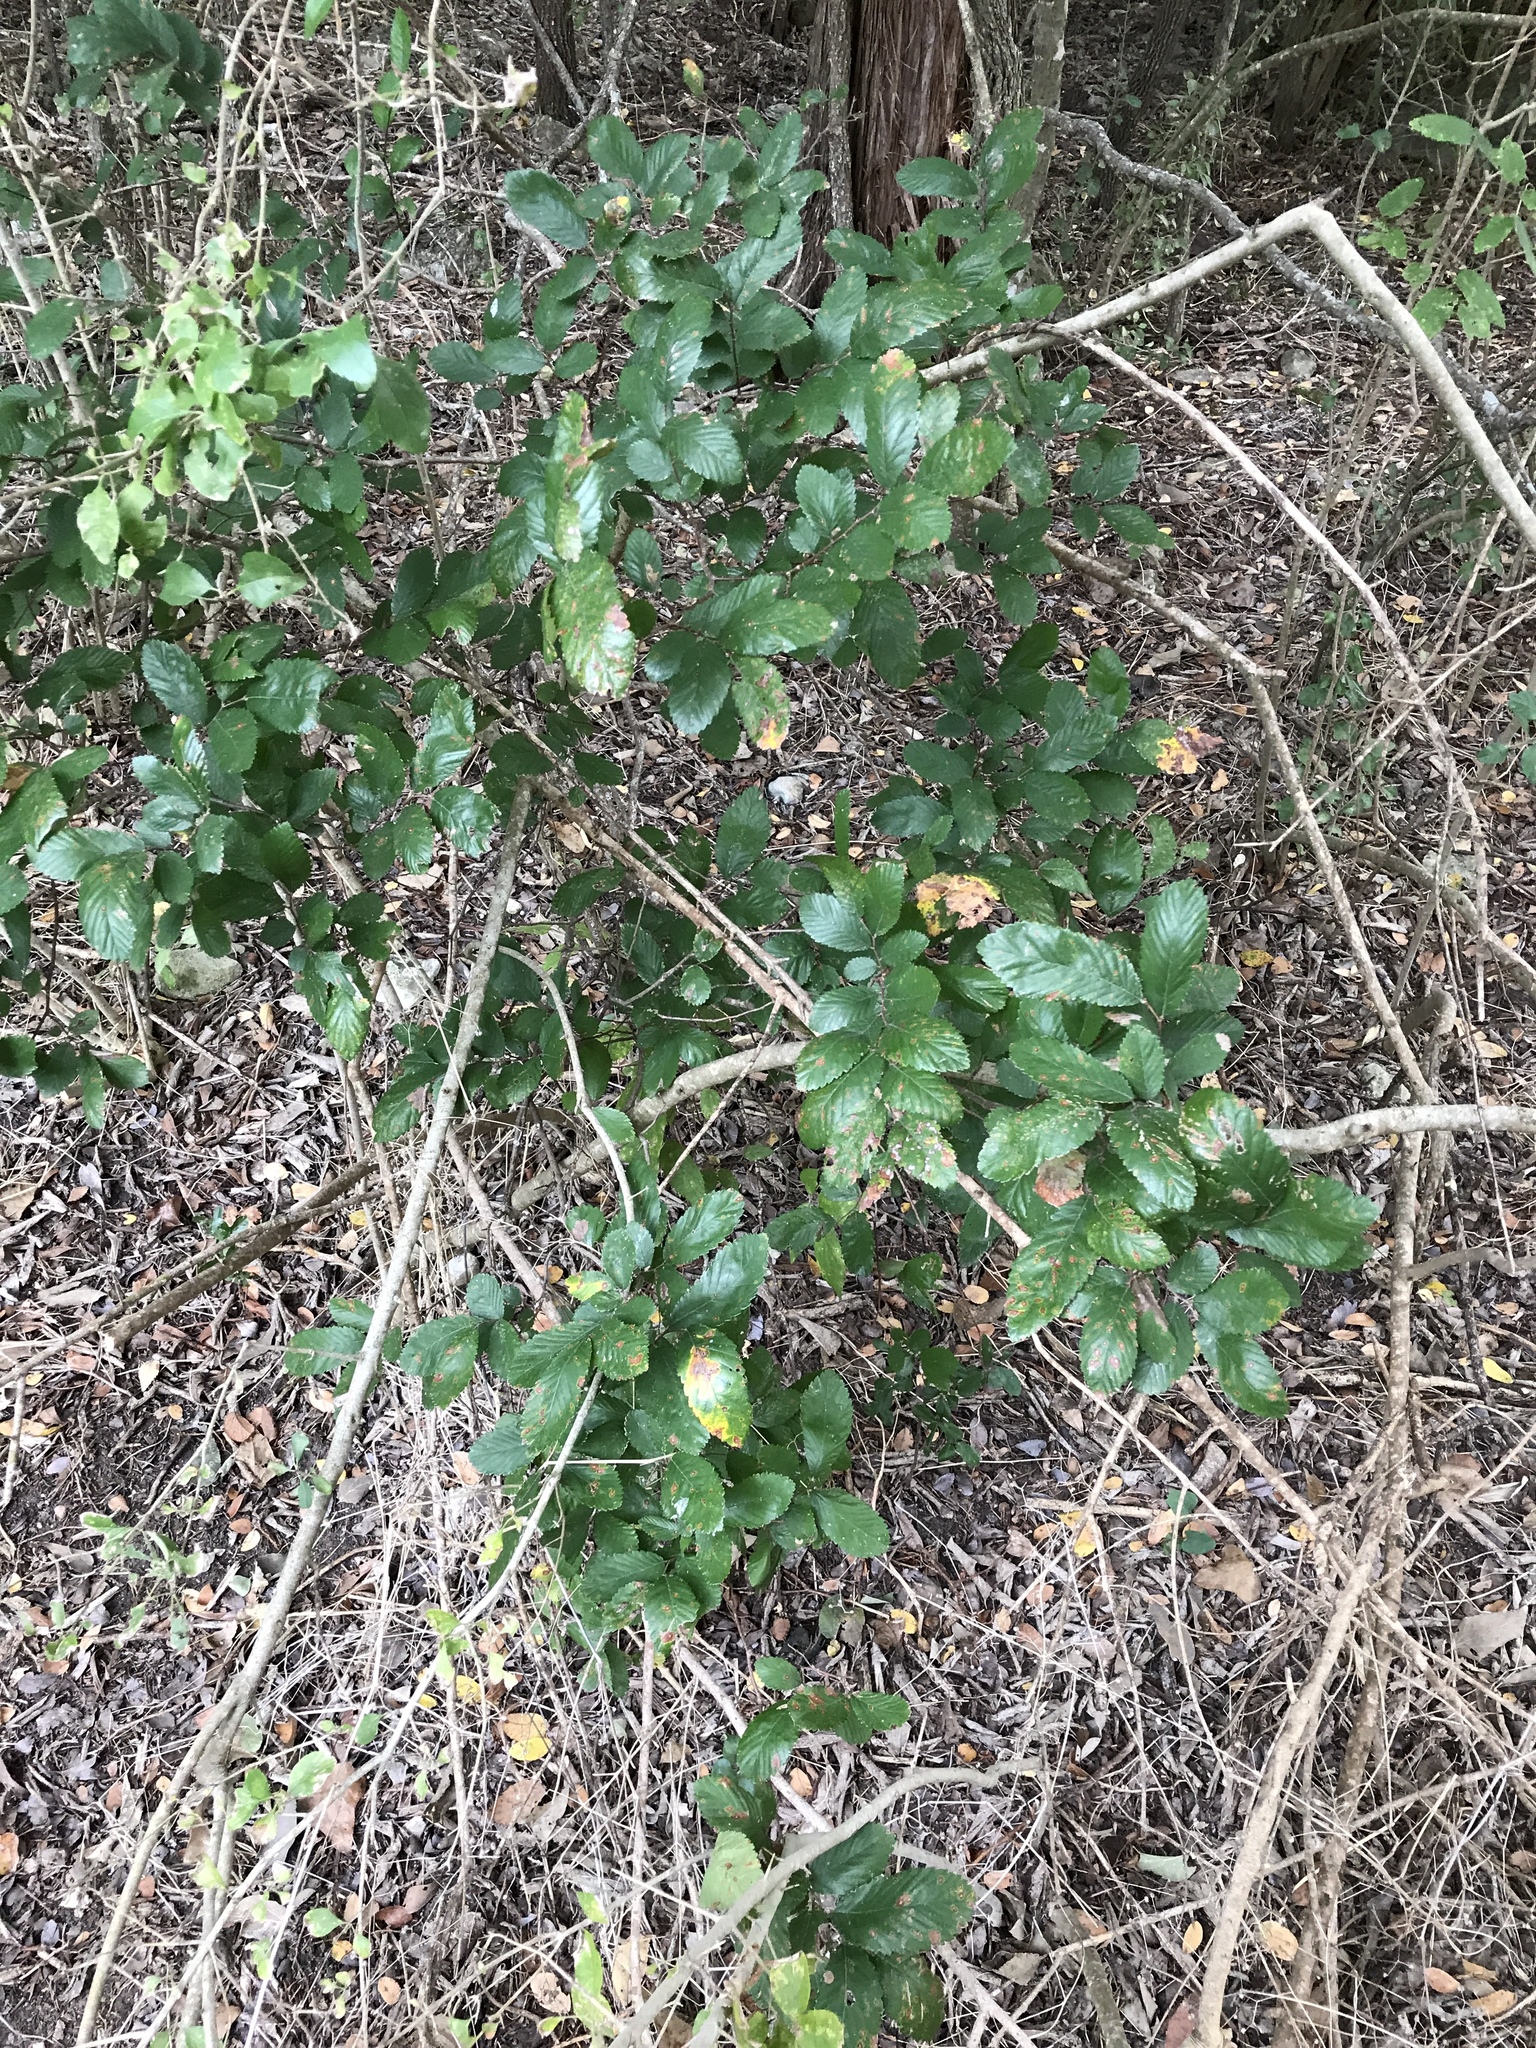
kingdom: Plantae
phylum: Tracheophyta
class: Magnoliopsida
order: Rosales
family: Ulmaceae
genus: Ulmus
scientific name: Ulmus crassifolia
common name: Basket elm
